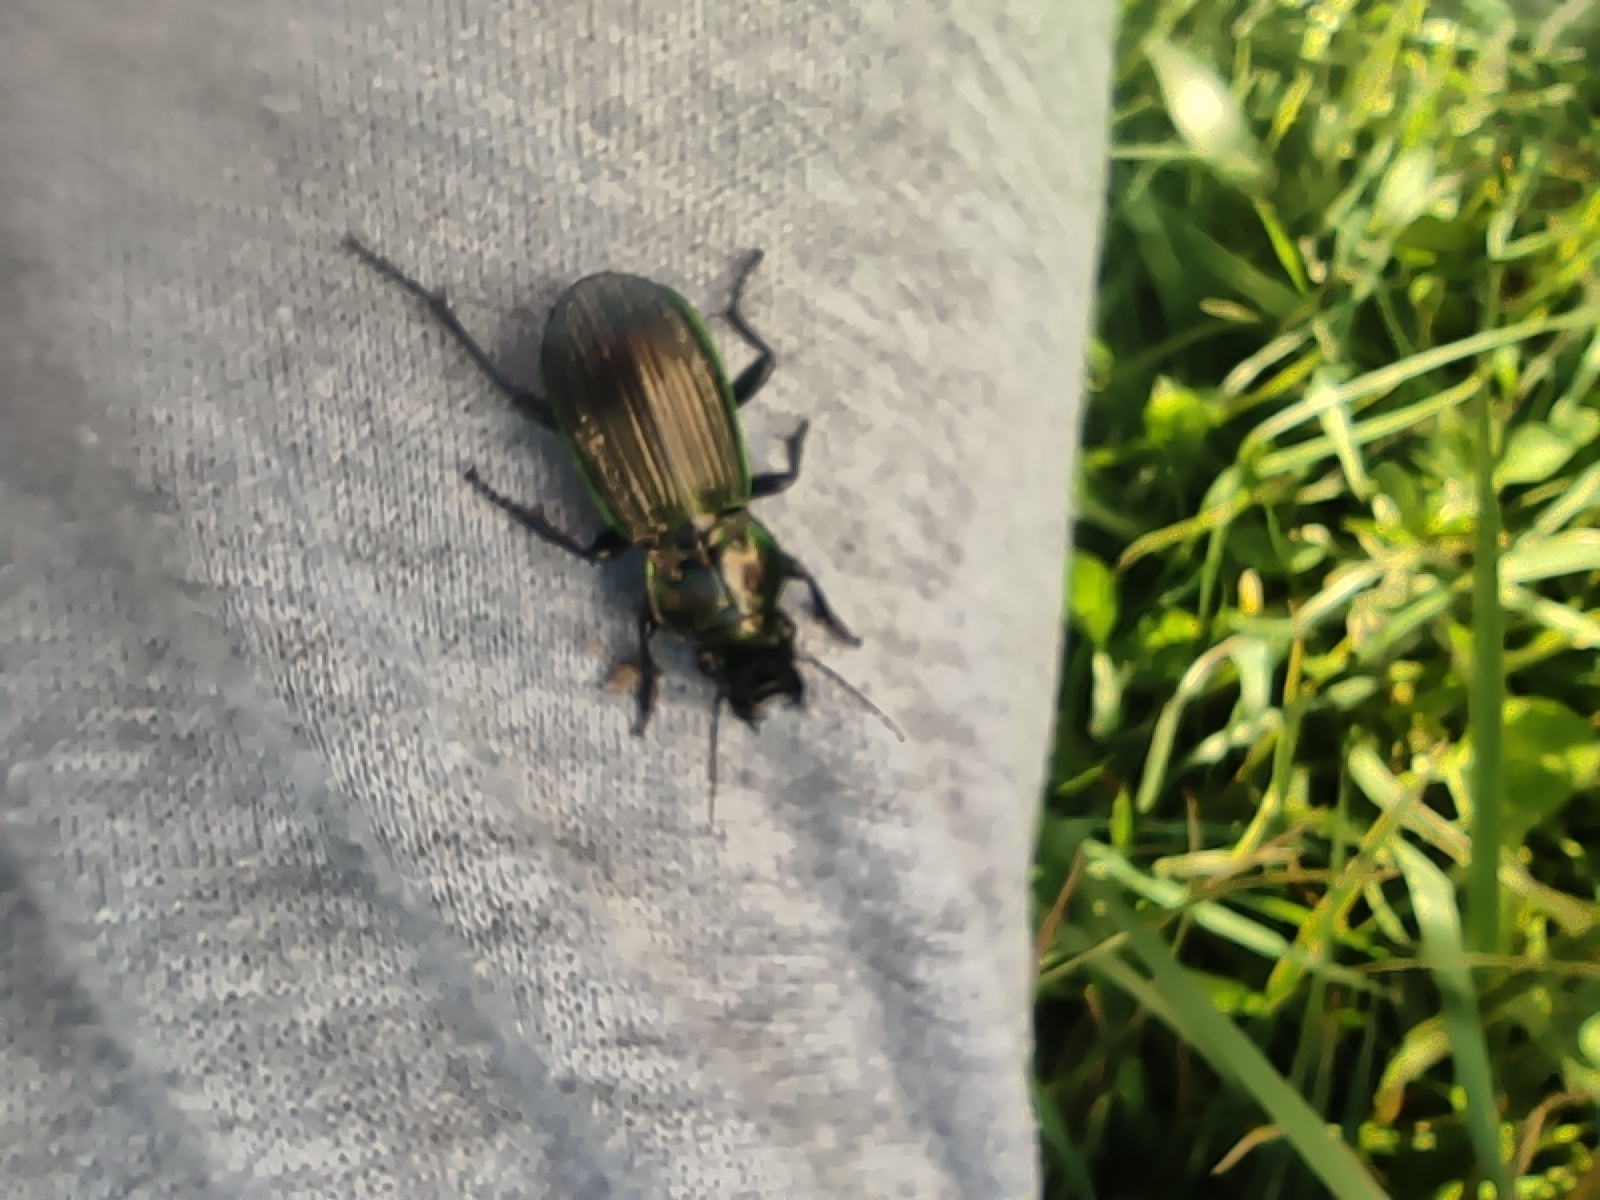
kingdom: Animalia
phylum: Arthropoda
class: Insecta
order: Coleoptera
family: Carabidae
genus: Megadromus
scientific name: Megadromus antarcticus
